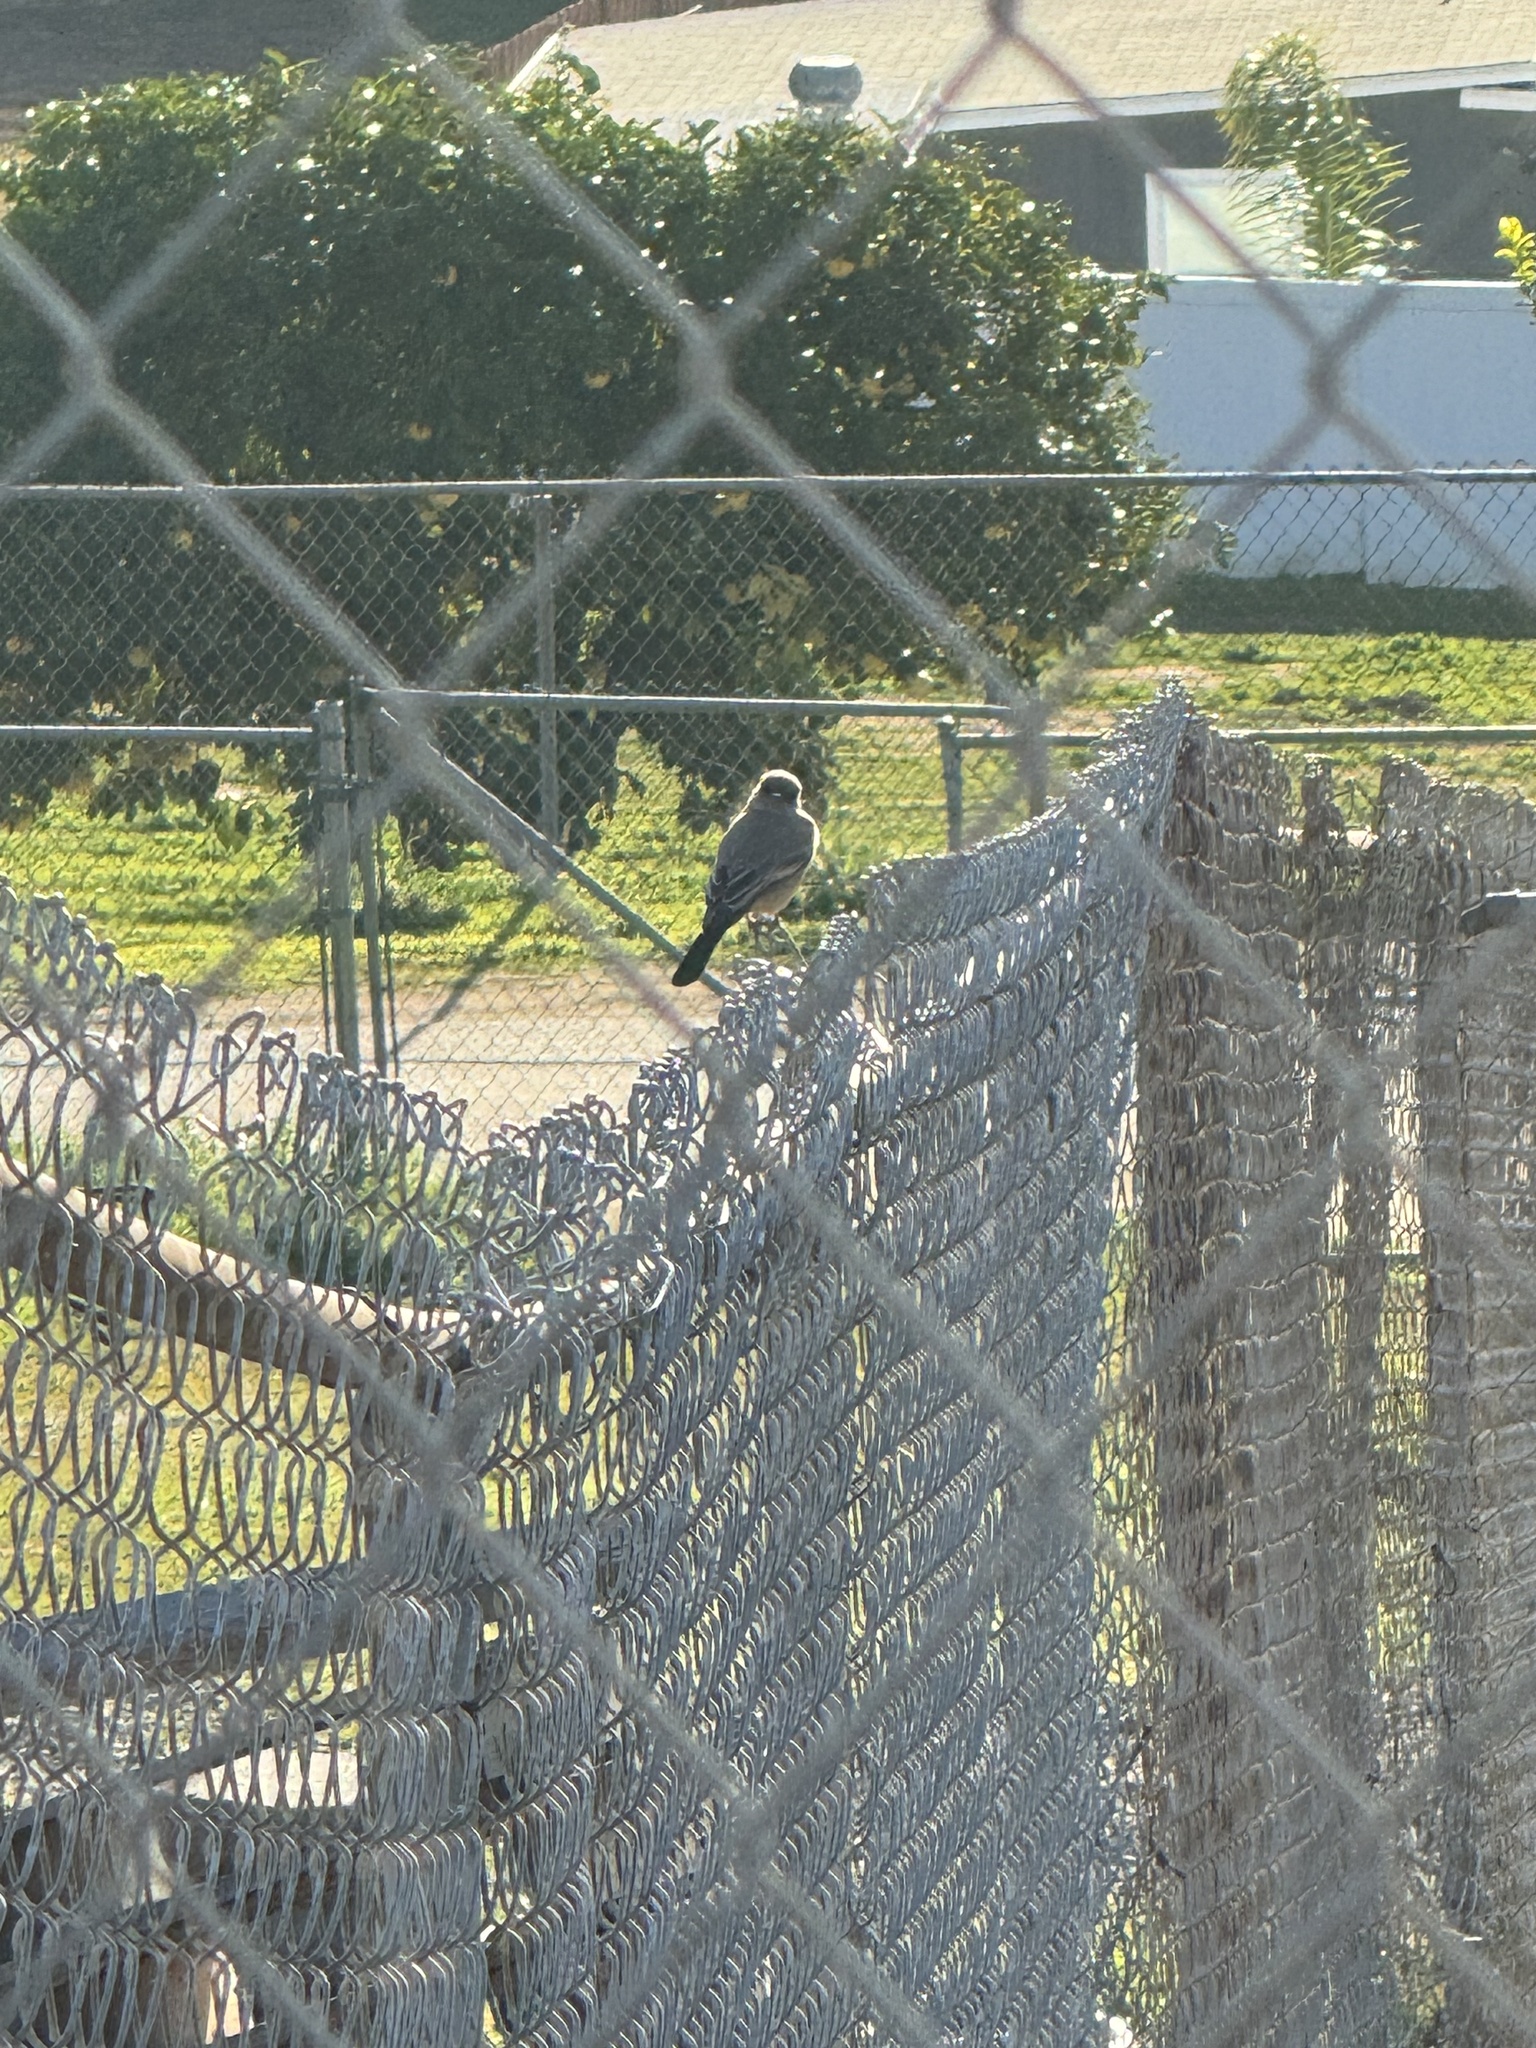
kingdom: Animalia
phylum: Chordata
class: Aves
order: Passeriformes
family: Tyrannidae
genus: Sayornis
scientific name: Sayornis saya
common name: Say's phoebe
